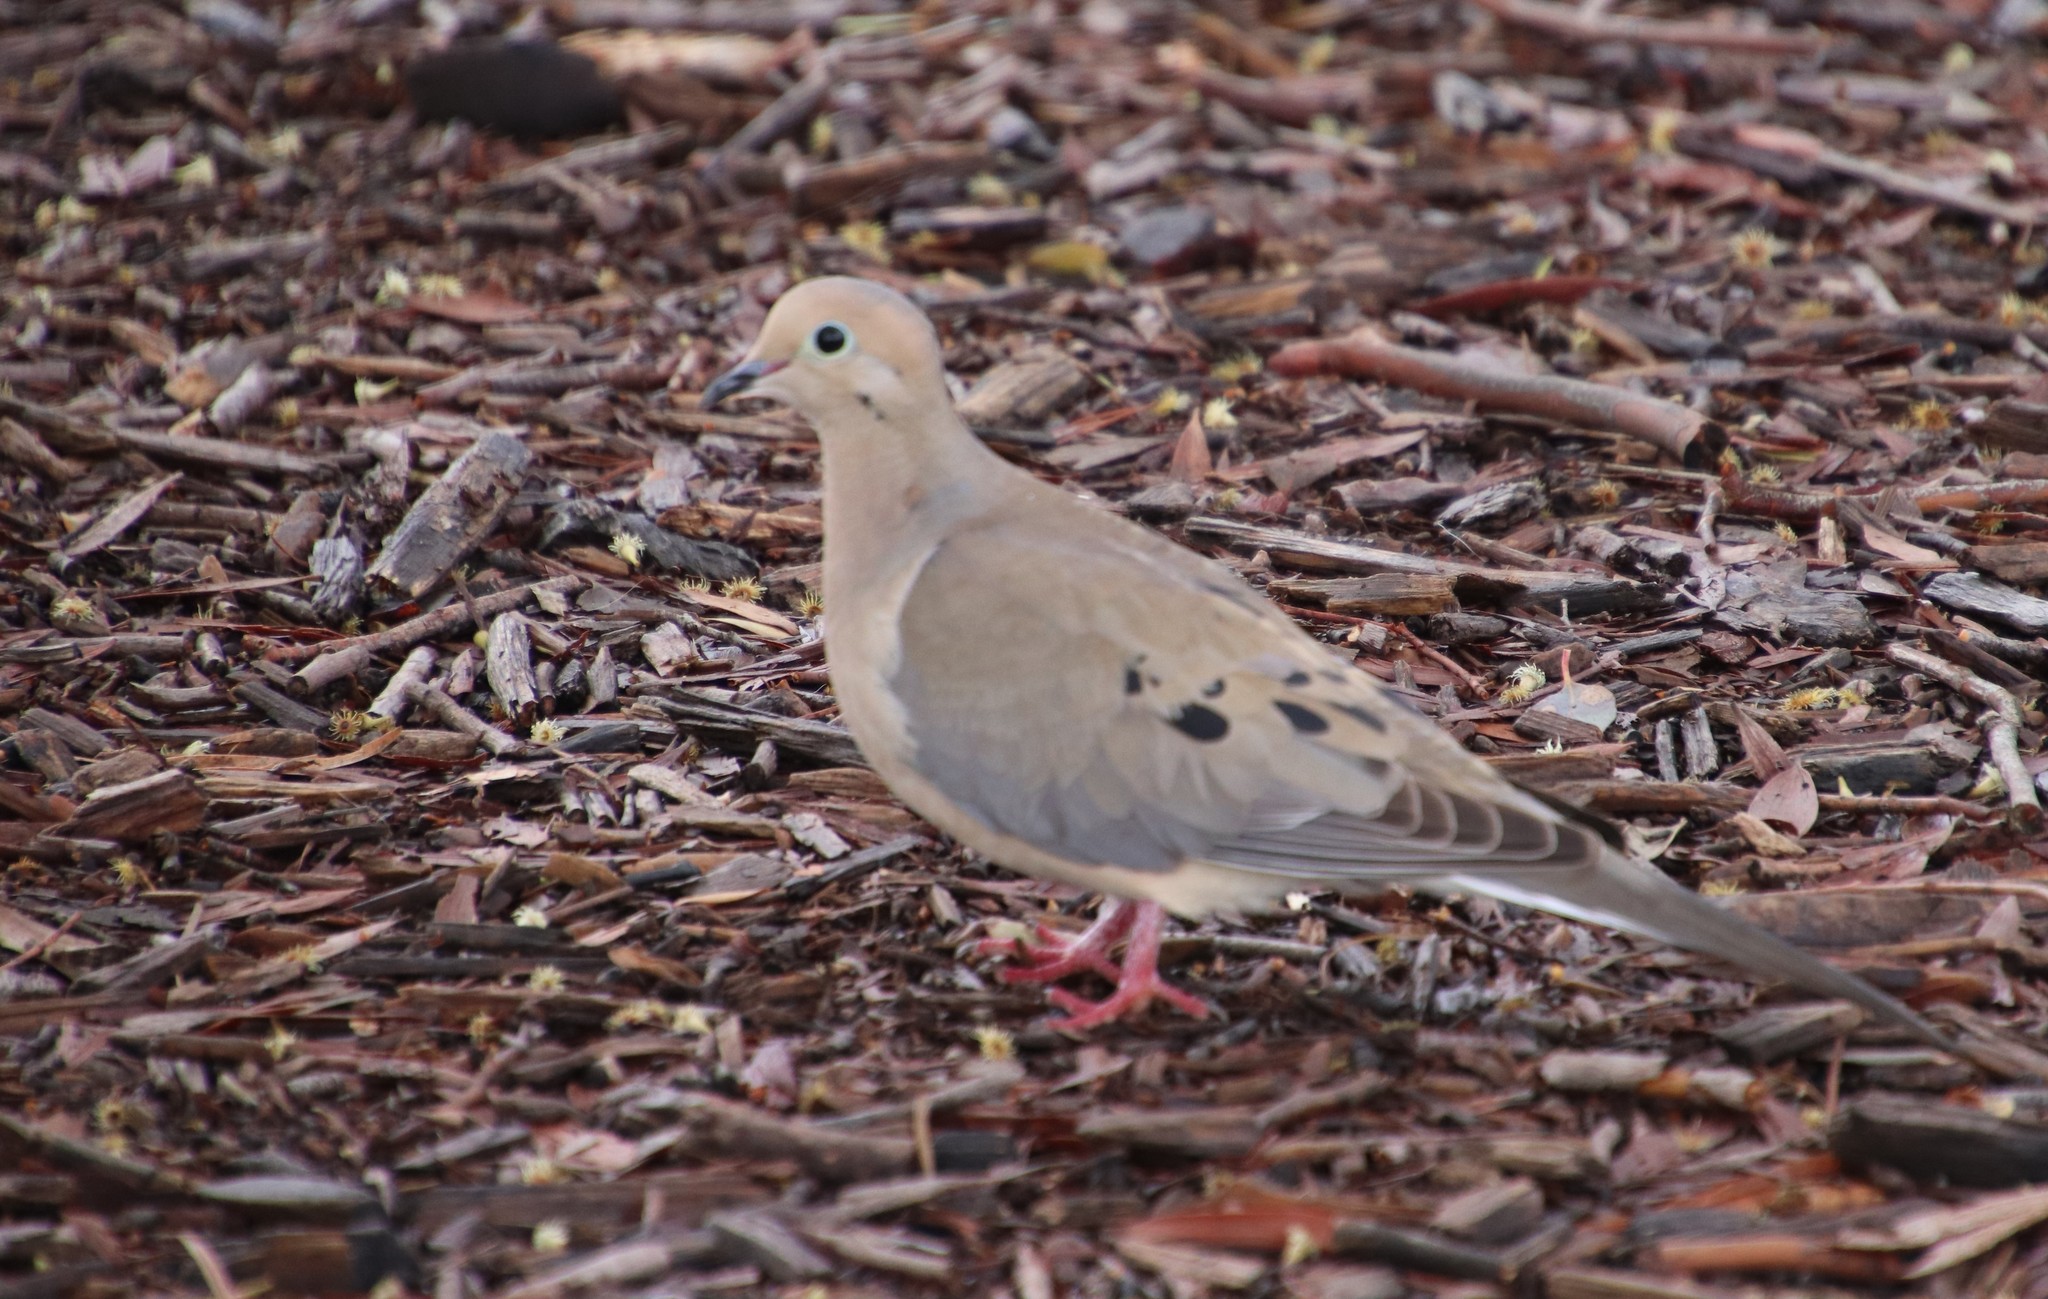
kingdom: Animalia
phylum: Chordata
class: Aves
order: Columbiformes
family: Columbidae
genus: Zenaida
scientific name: Zenaida macroura
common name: Mourning dove
